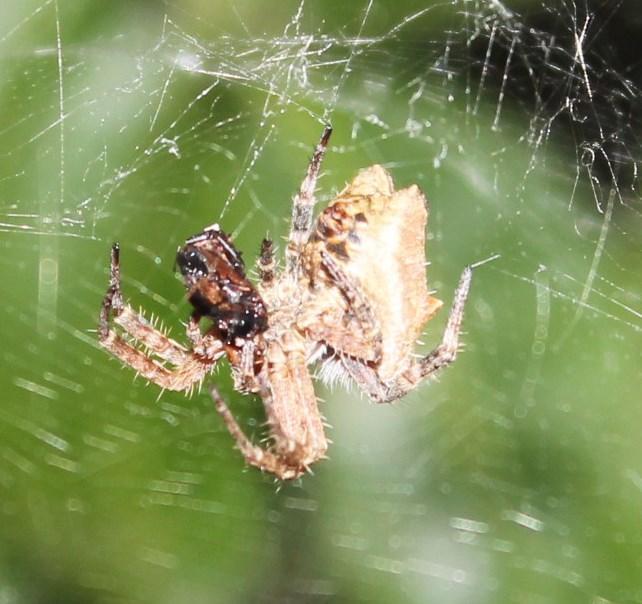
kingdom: Animalia
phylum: Arthropoda
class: Arachnida
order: Araneae
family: Araneidae
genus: Cyrtophora
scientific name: Cyrtophora citricola
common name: Orb weavers
